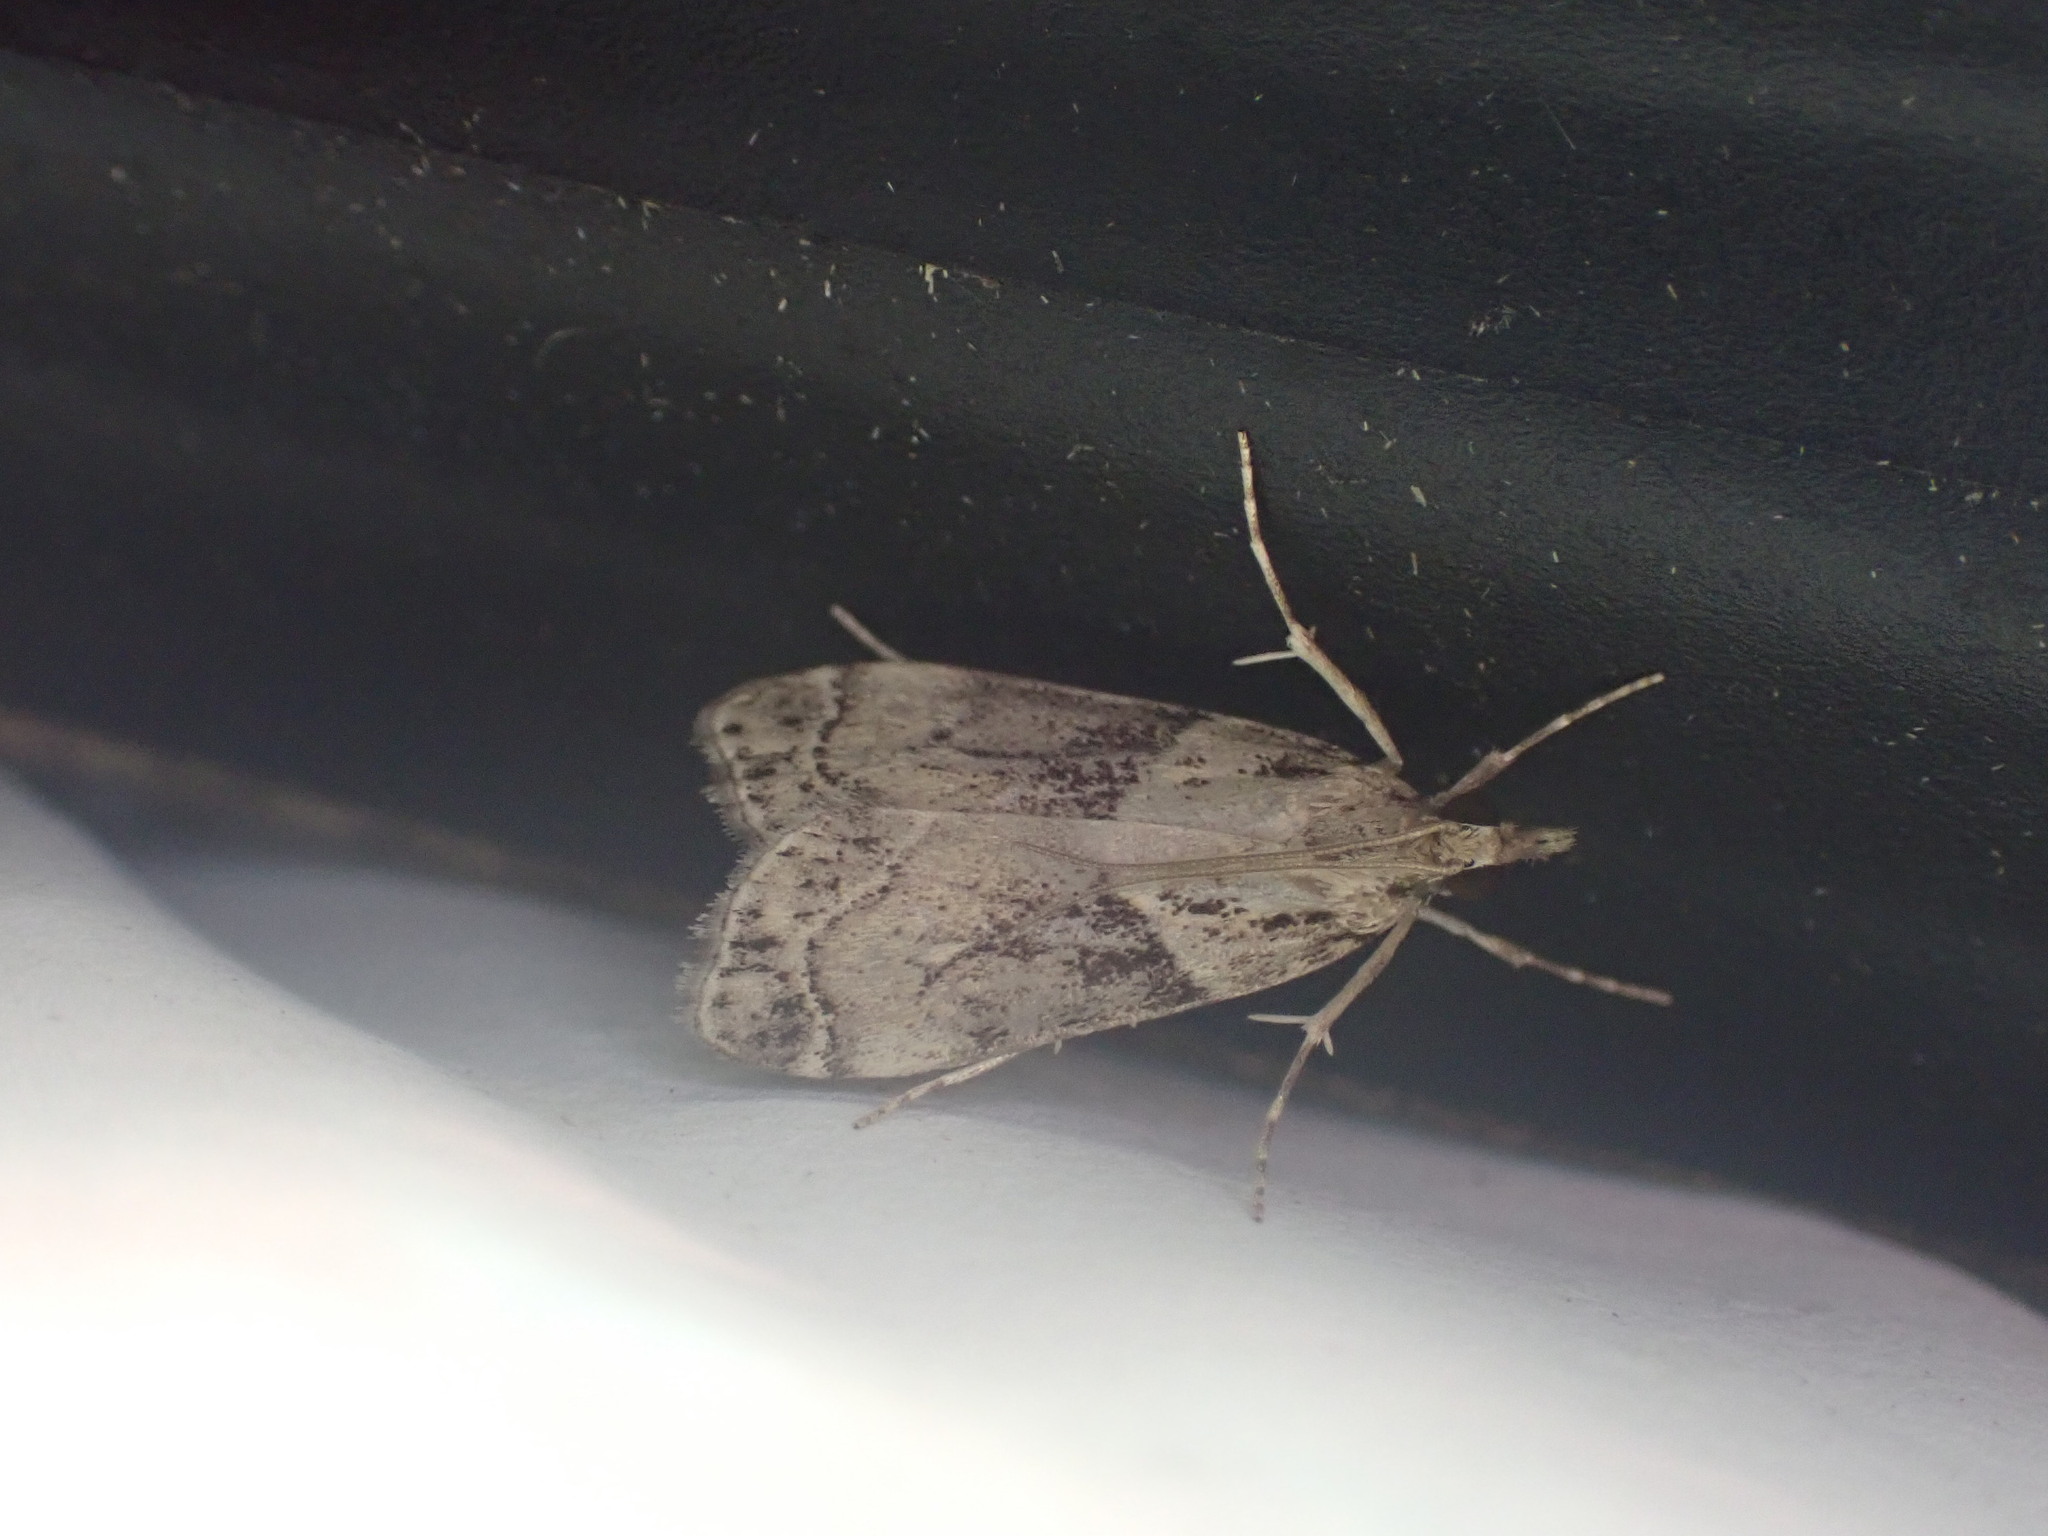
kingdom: Animalia
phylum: Arthropoda
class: Insecta
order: Lepidoptera
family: Crambidae
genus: Eudonia
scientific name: Eudonia periphanes
